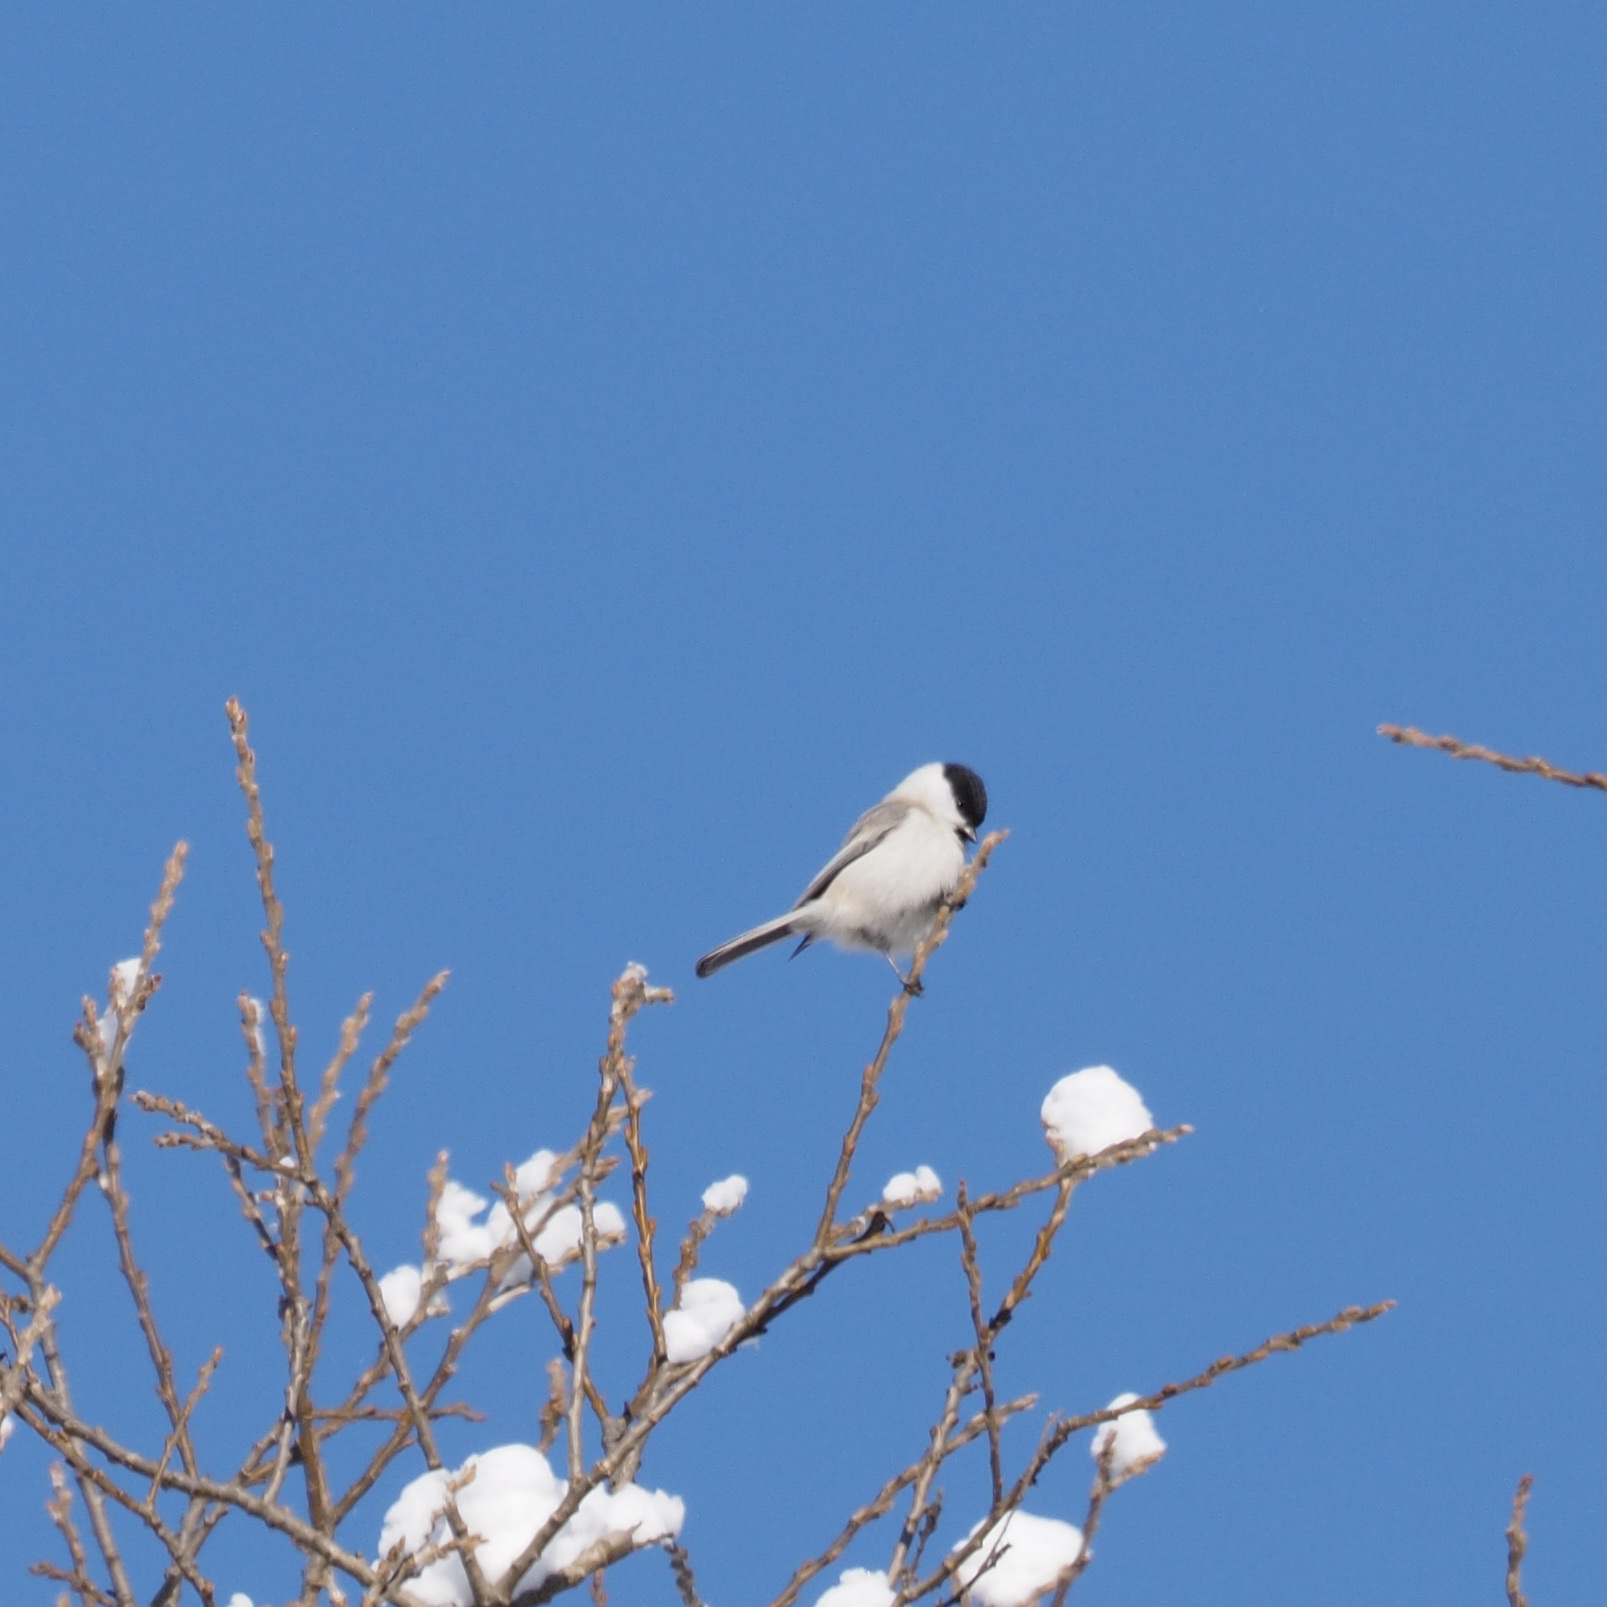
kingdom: Animalia
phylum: Chordata
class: Aves
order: Passeriformes
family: Paridae
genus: Poecile
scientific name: Poecile palustris
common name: Marsh tit
